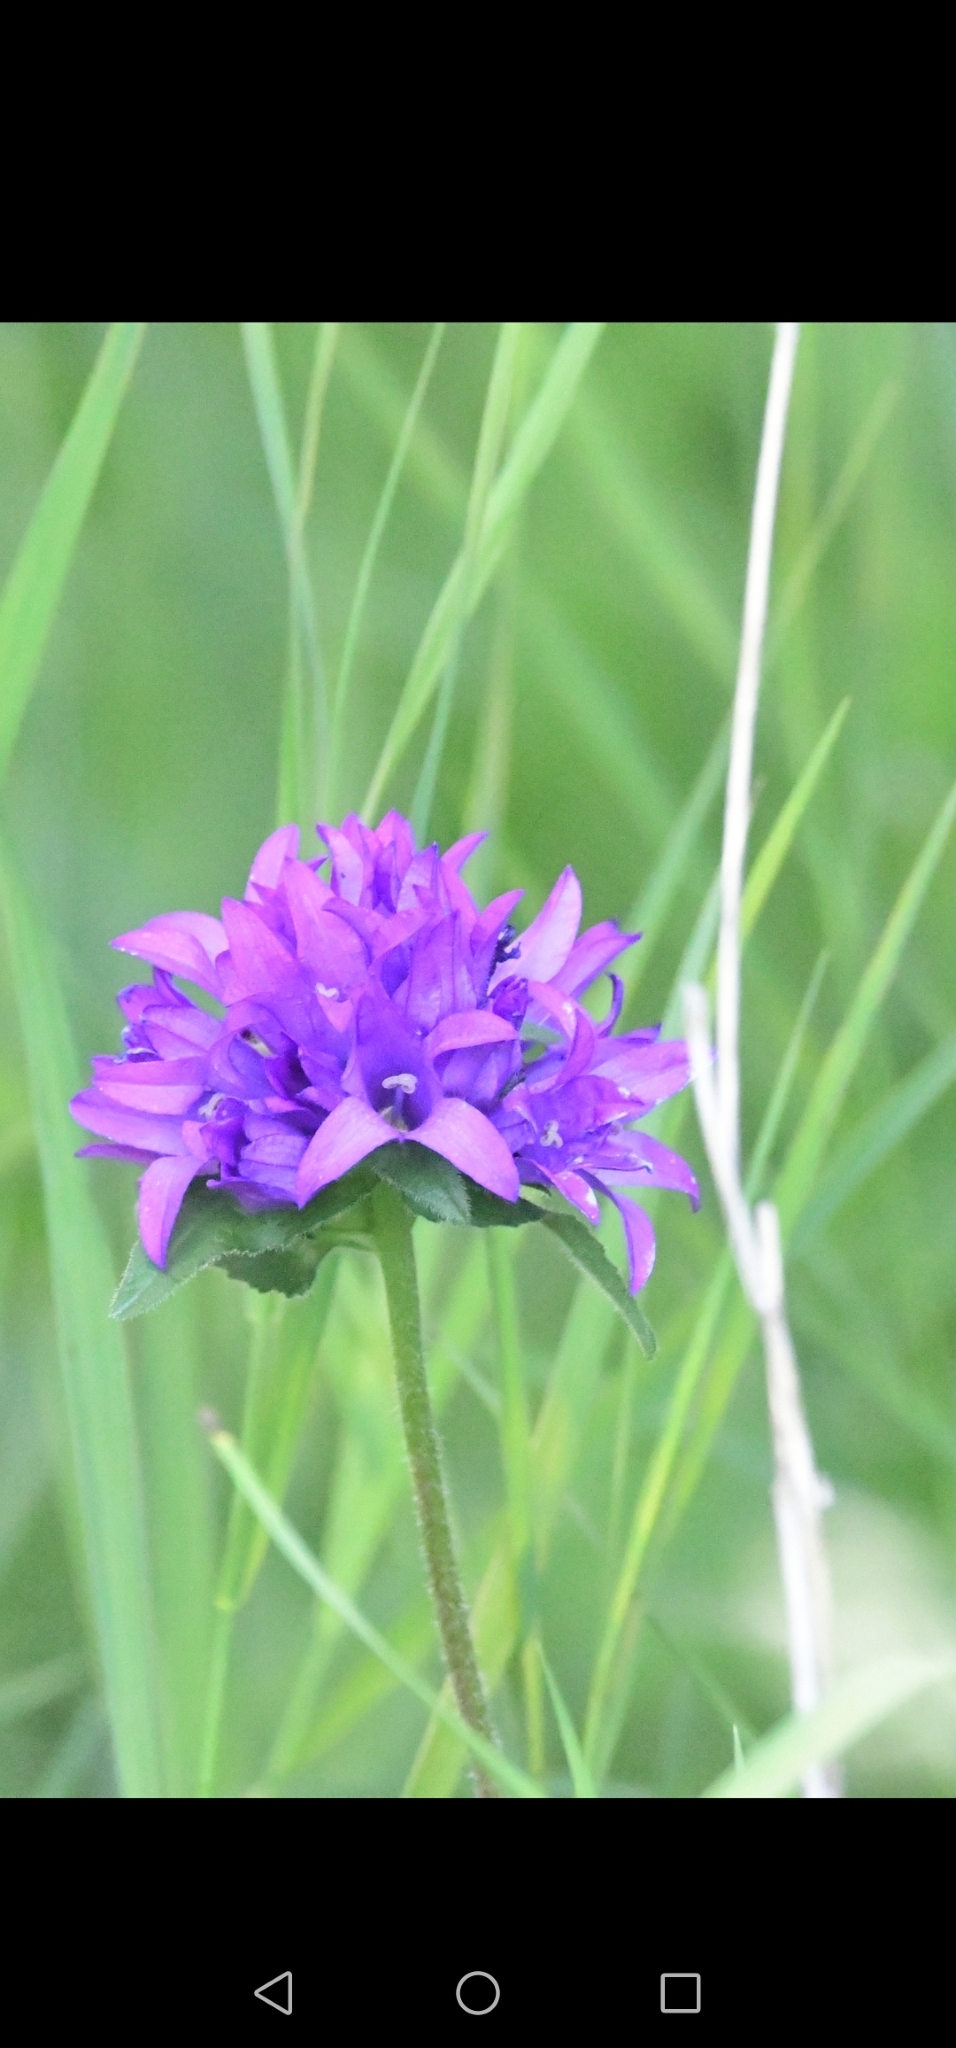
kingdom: Plantae
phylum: Tracheophyta
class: Magnoliopsida
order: Asterales
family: Campanulaceae
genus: Campanula
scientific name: Campanula glomerata
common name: Clustered bellflower
